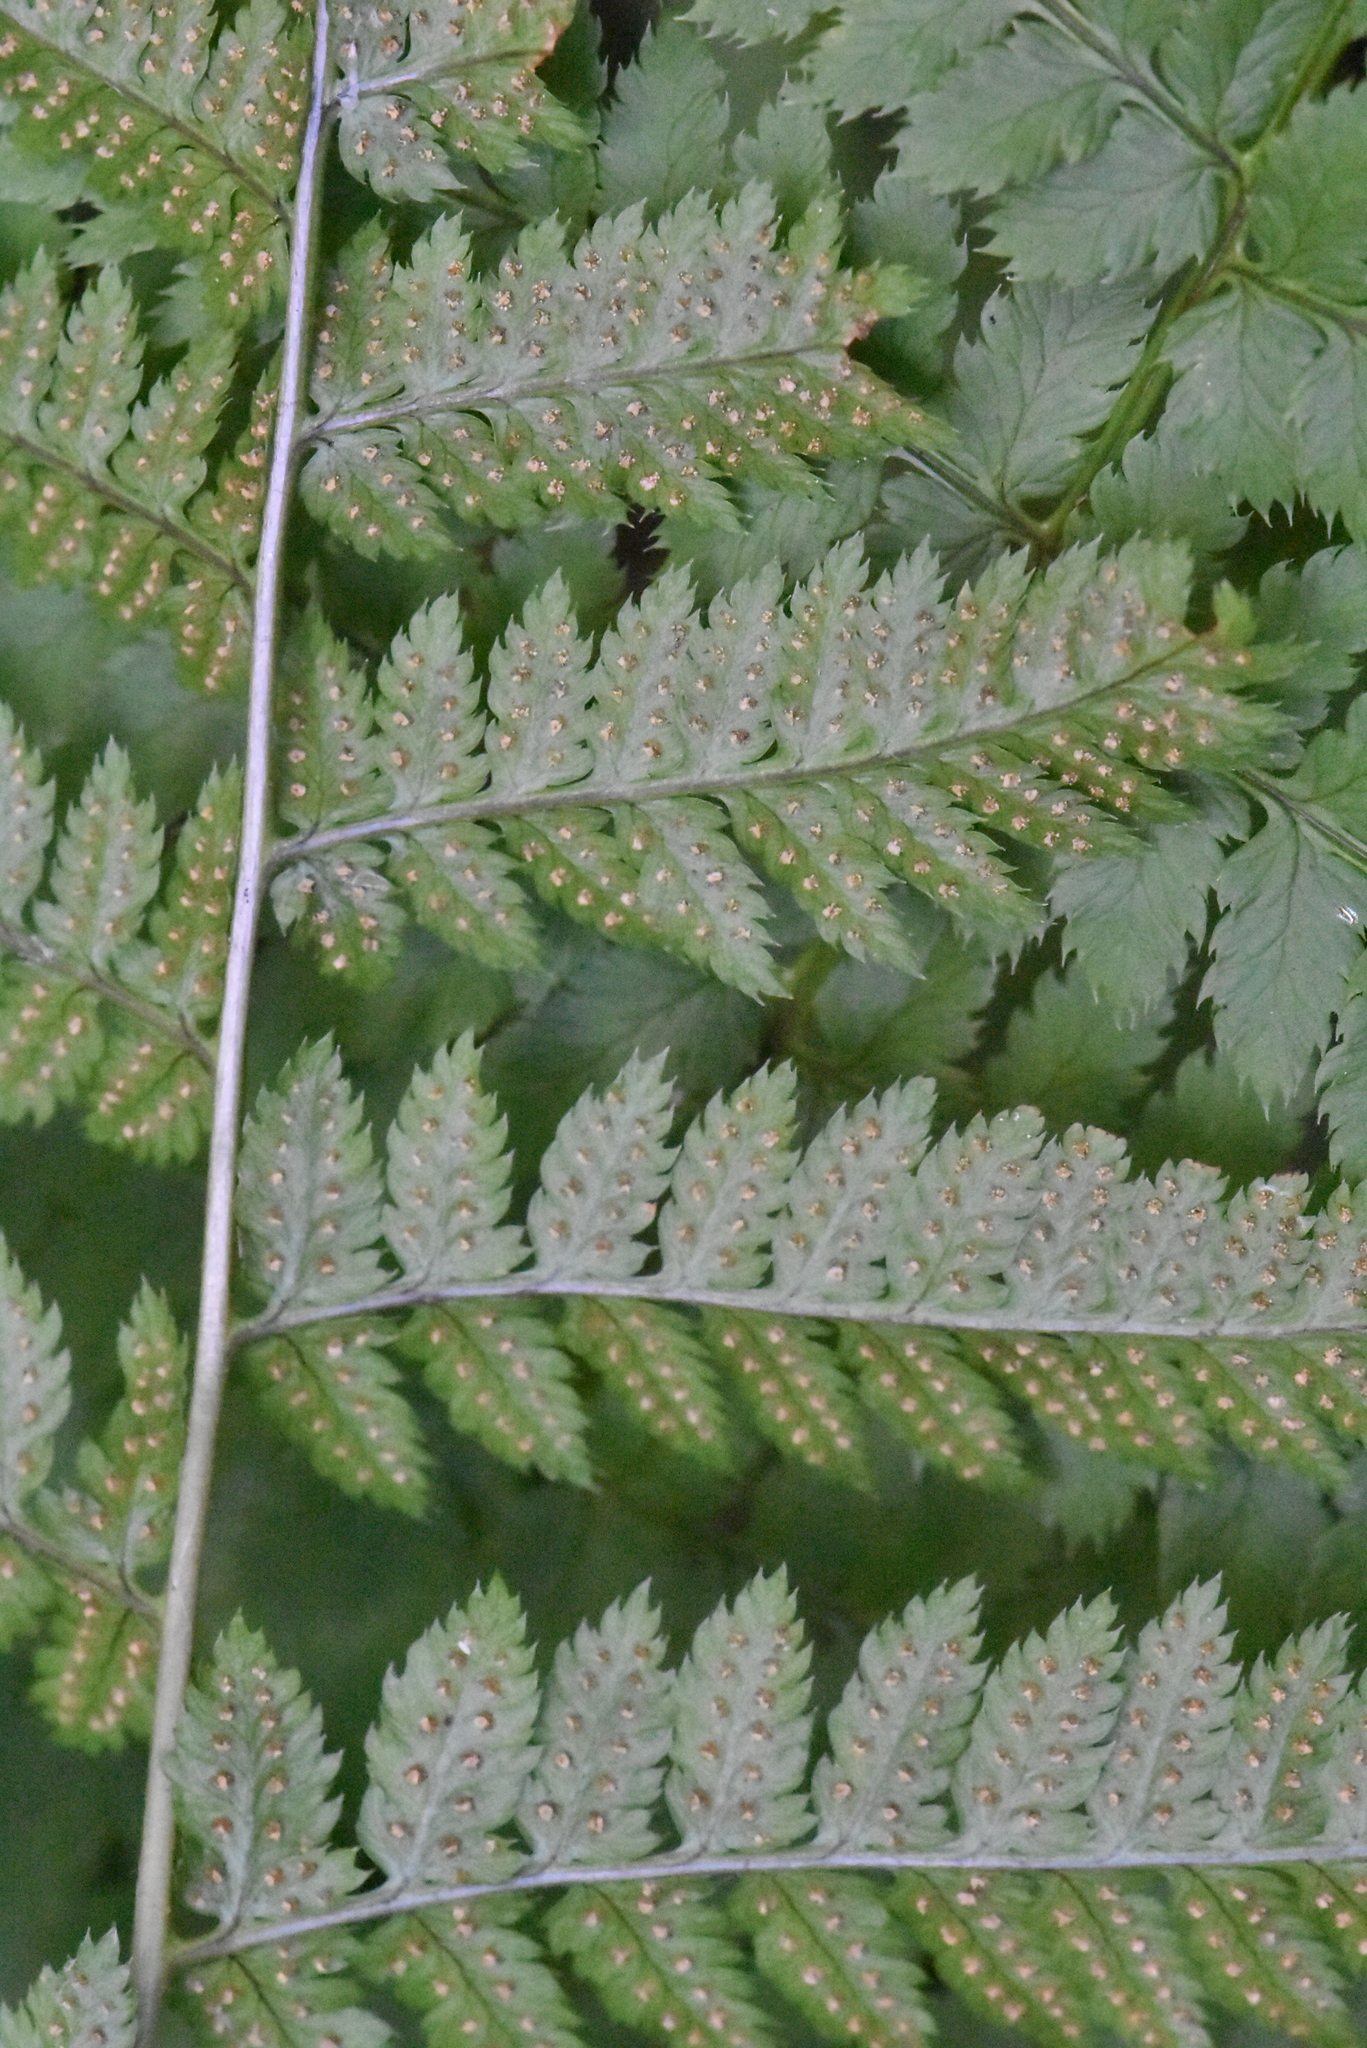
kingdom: Plantae
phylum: Tracheophyta
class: Polypodiopsida
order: Polypodiales
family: Dryopteridaceae
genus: Dryopteris
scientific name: Dryopteris carthusiana
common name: Narrow buckler-fern
